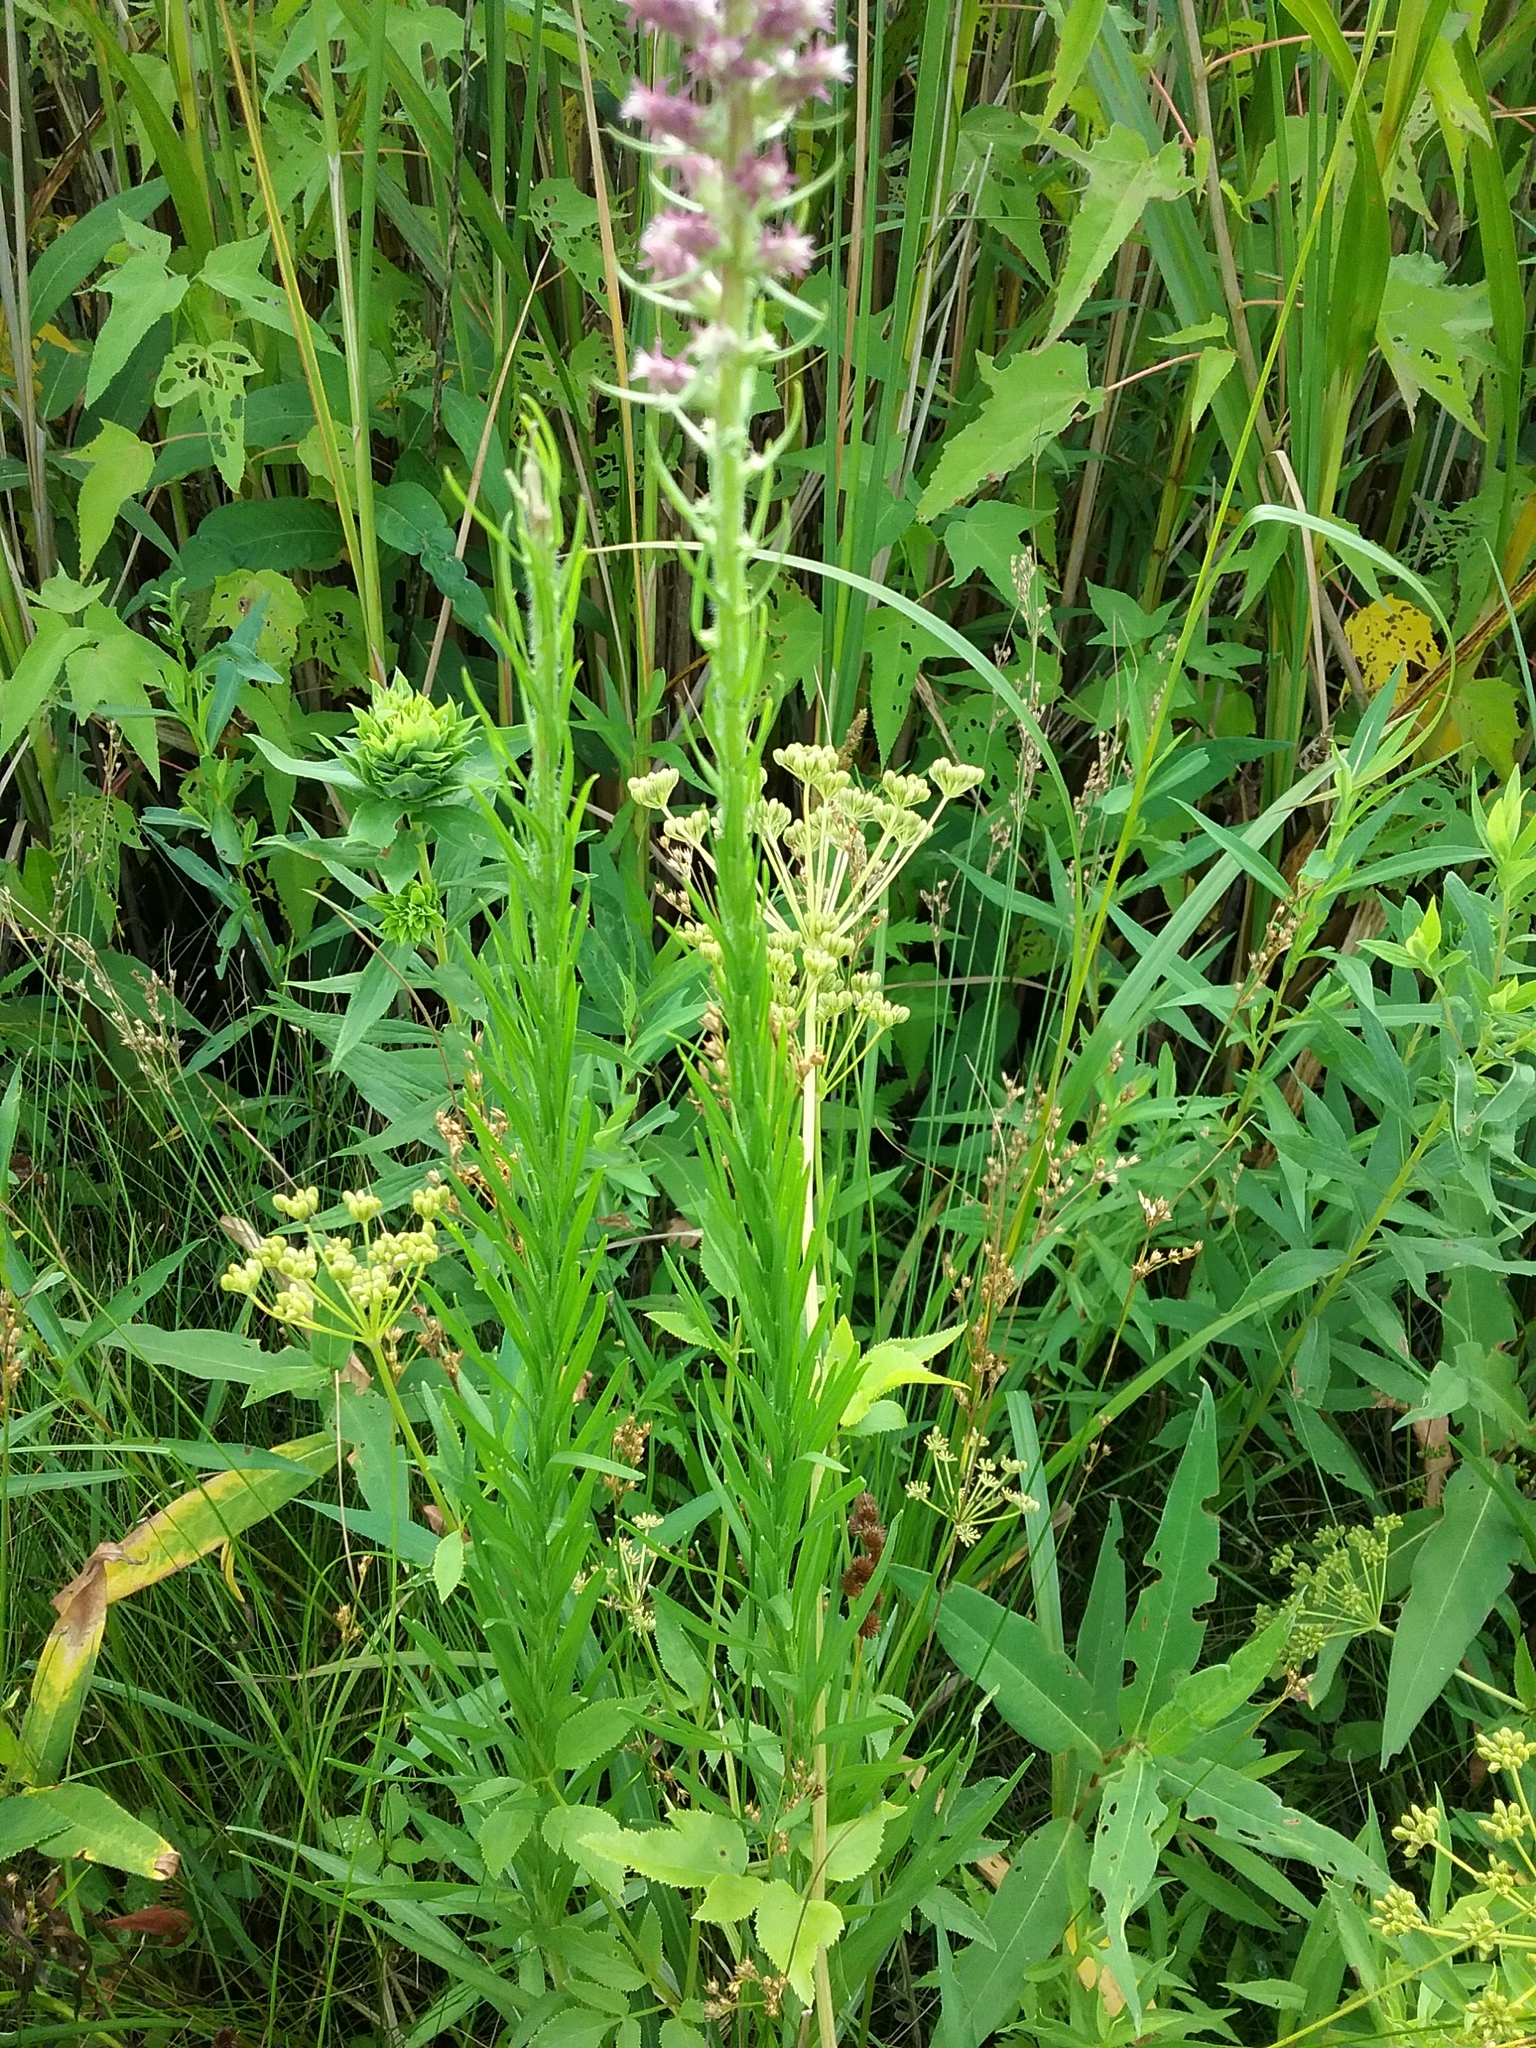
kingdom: Plantae
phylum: Tracheophyta
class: Magnoliopsida
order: Asterales
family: Asteraceae
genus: Liatris
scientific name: Liatris pycnostachya
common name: Cattail gayfeather
